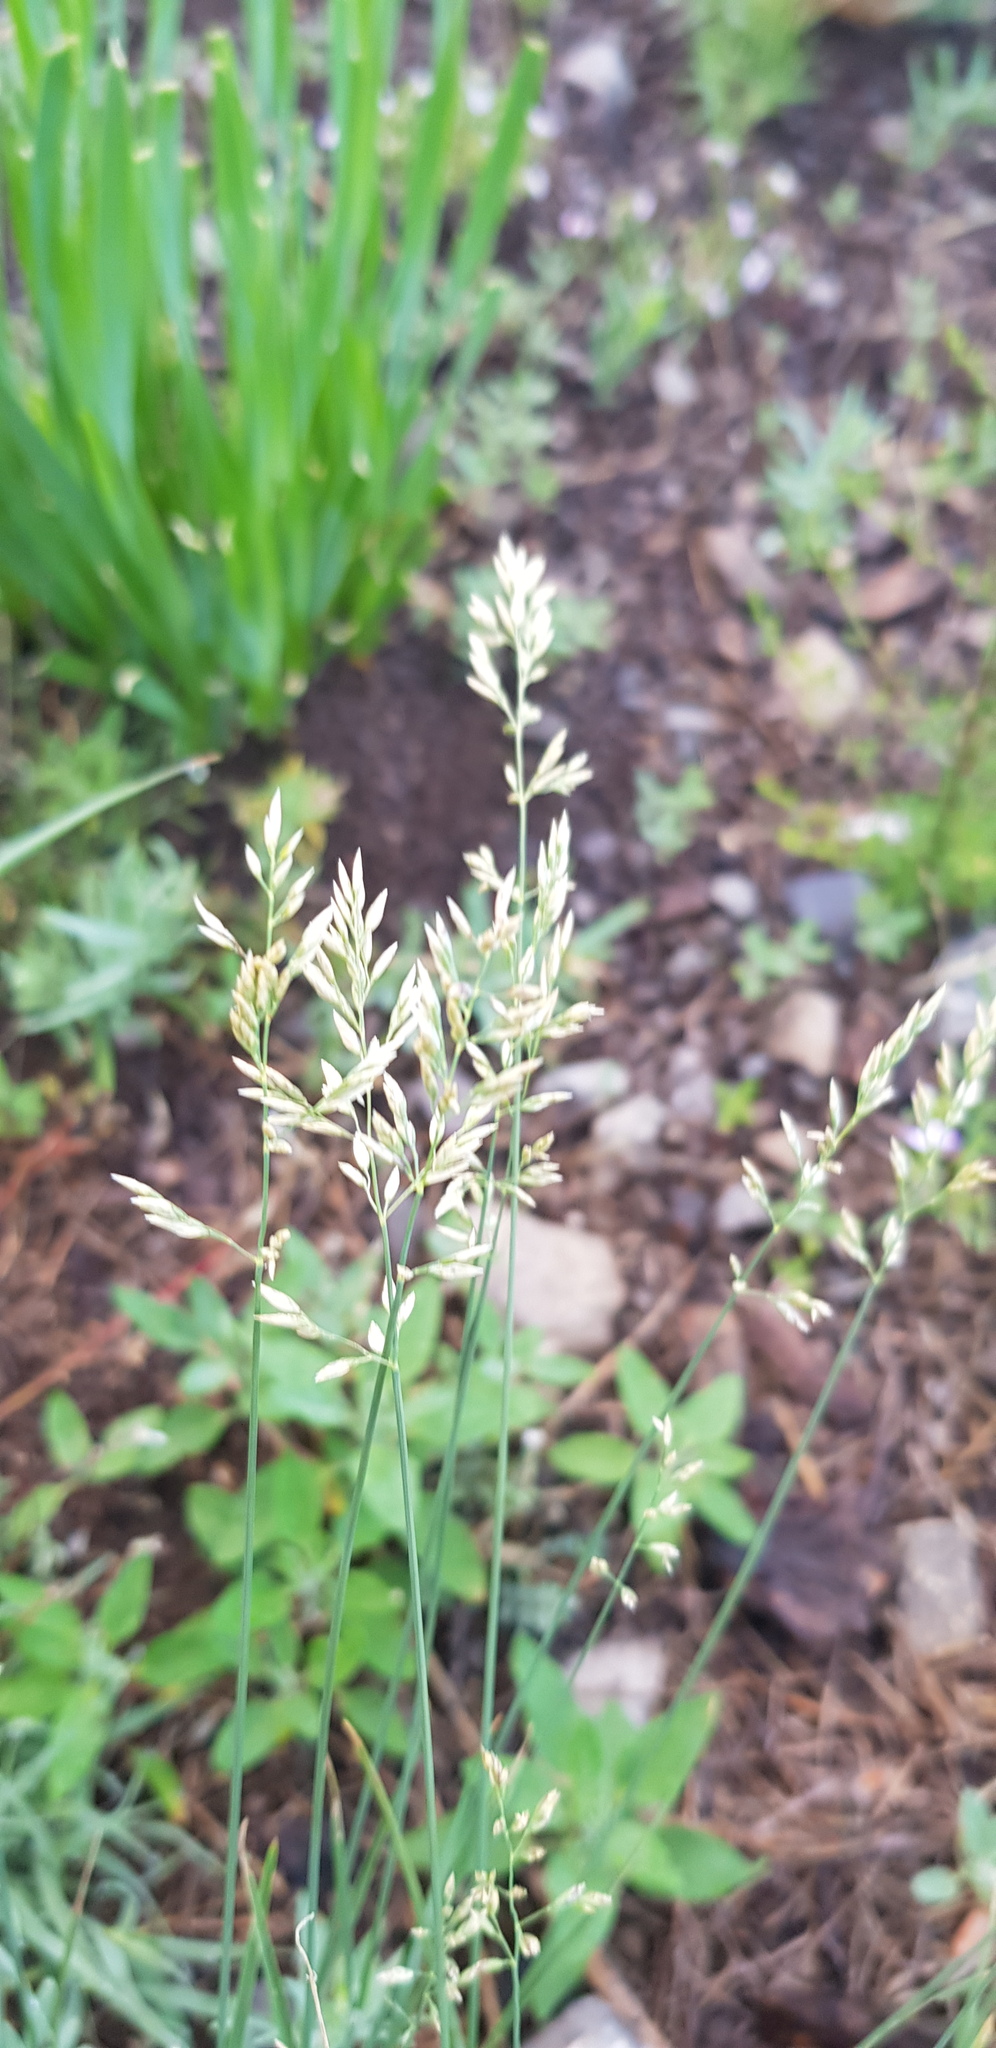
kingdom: Plantae
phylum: Tracheophyta
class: Liliopsida
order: Poales
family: Poaceae
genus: Poa
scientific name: Poa attenuata
